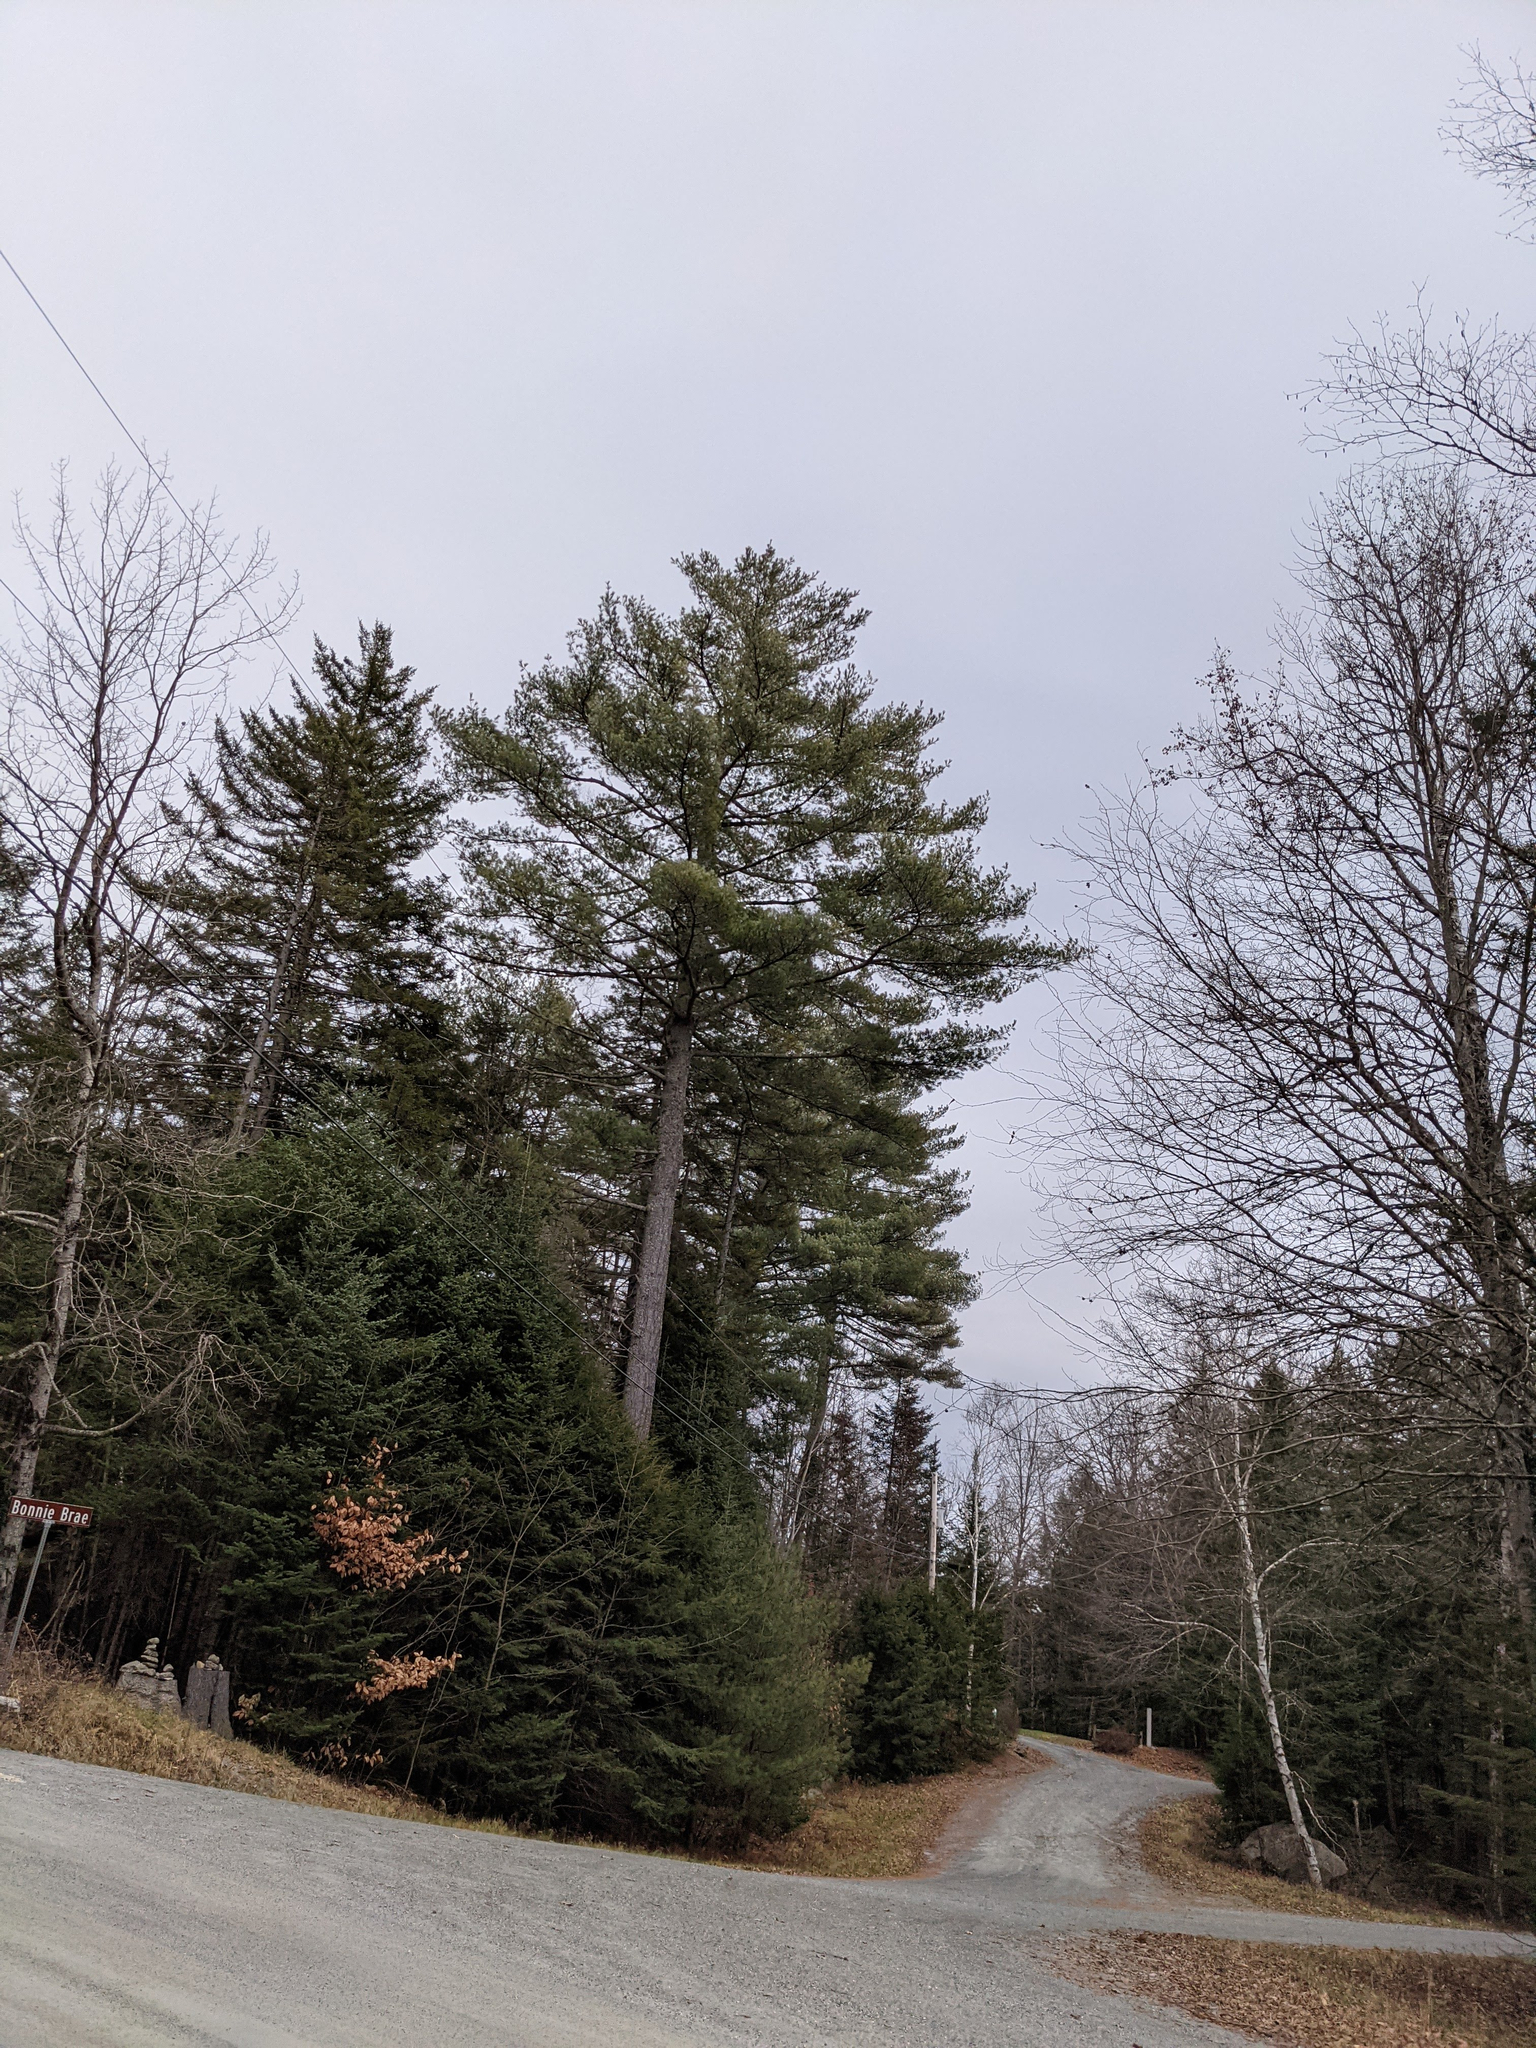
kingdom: Plantae
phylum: Tracheophyta
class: Pinopsida
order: Pinales
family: Pinaceae
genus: Pinus
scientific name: Pinus strobus
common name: Weymouth pine
